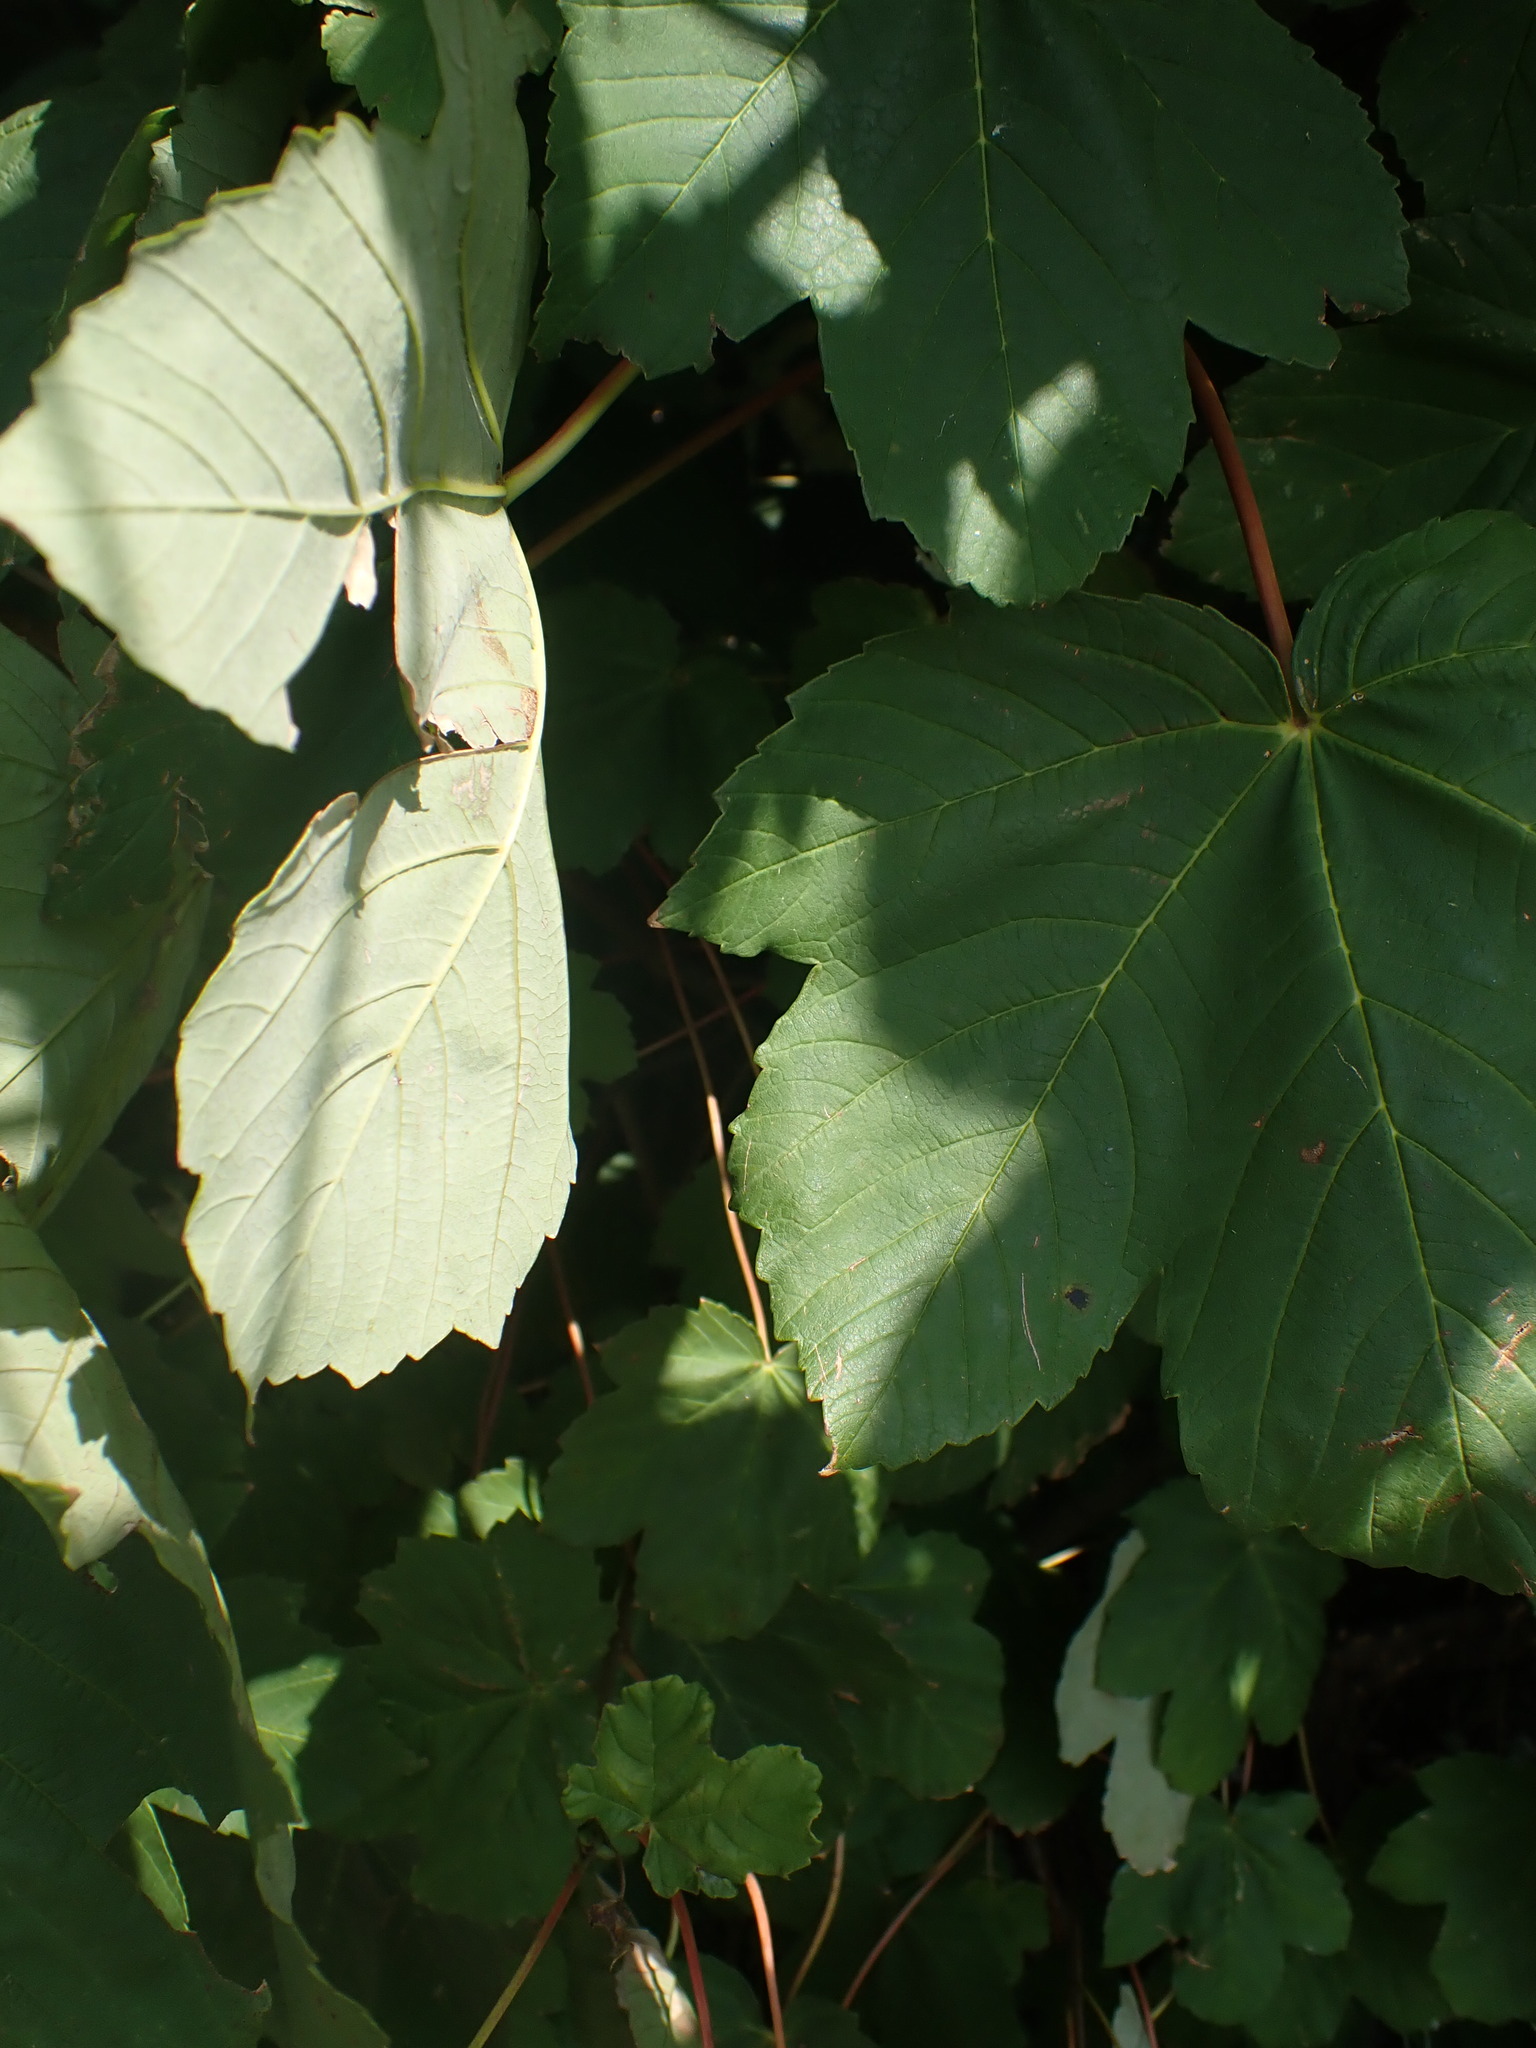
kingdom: Plantae
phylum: Tracheophyta
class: Magnoliopsida
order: Sapindales
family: Sapindaceae
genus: Acer
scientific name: Acer pseudoplatanus
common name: Sycamore
